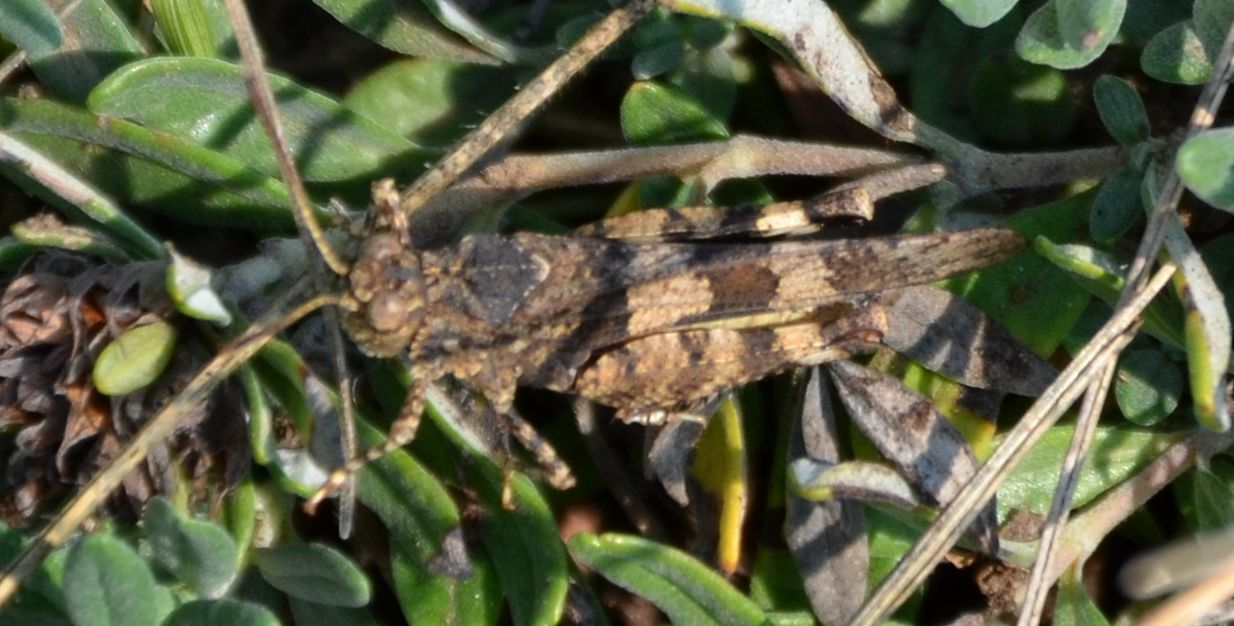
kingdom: Animalia
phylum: Arthropoda
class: Insecta
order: Orthoptera
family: Acrididae
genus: Oedipoda
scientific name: Oedipoda caerulescens
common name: Blue-winged grasshopper
